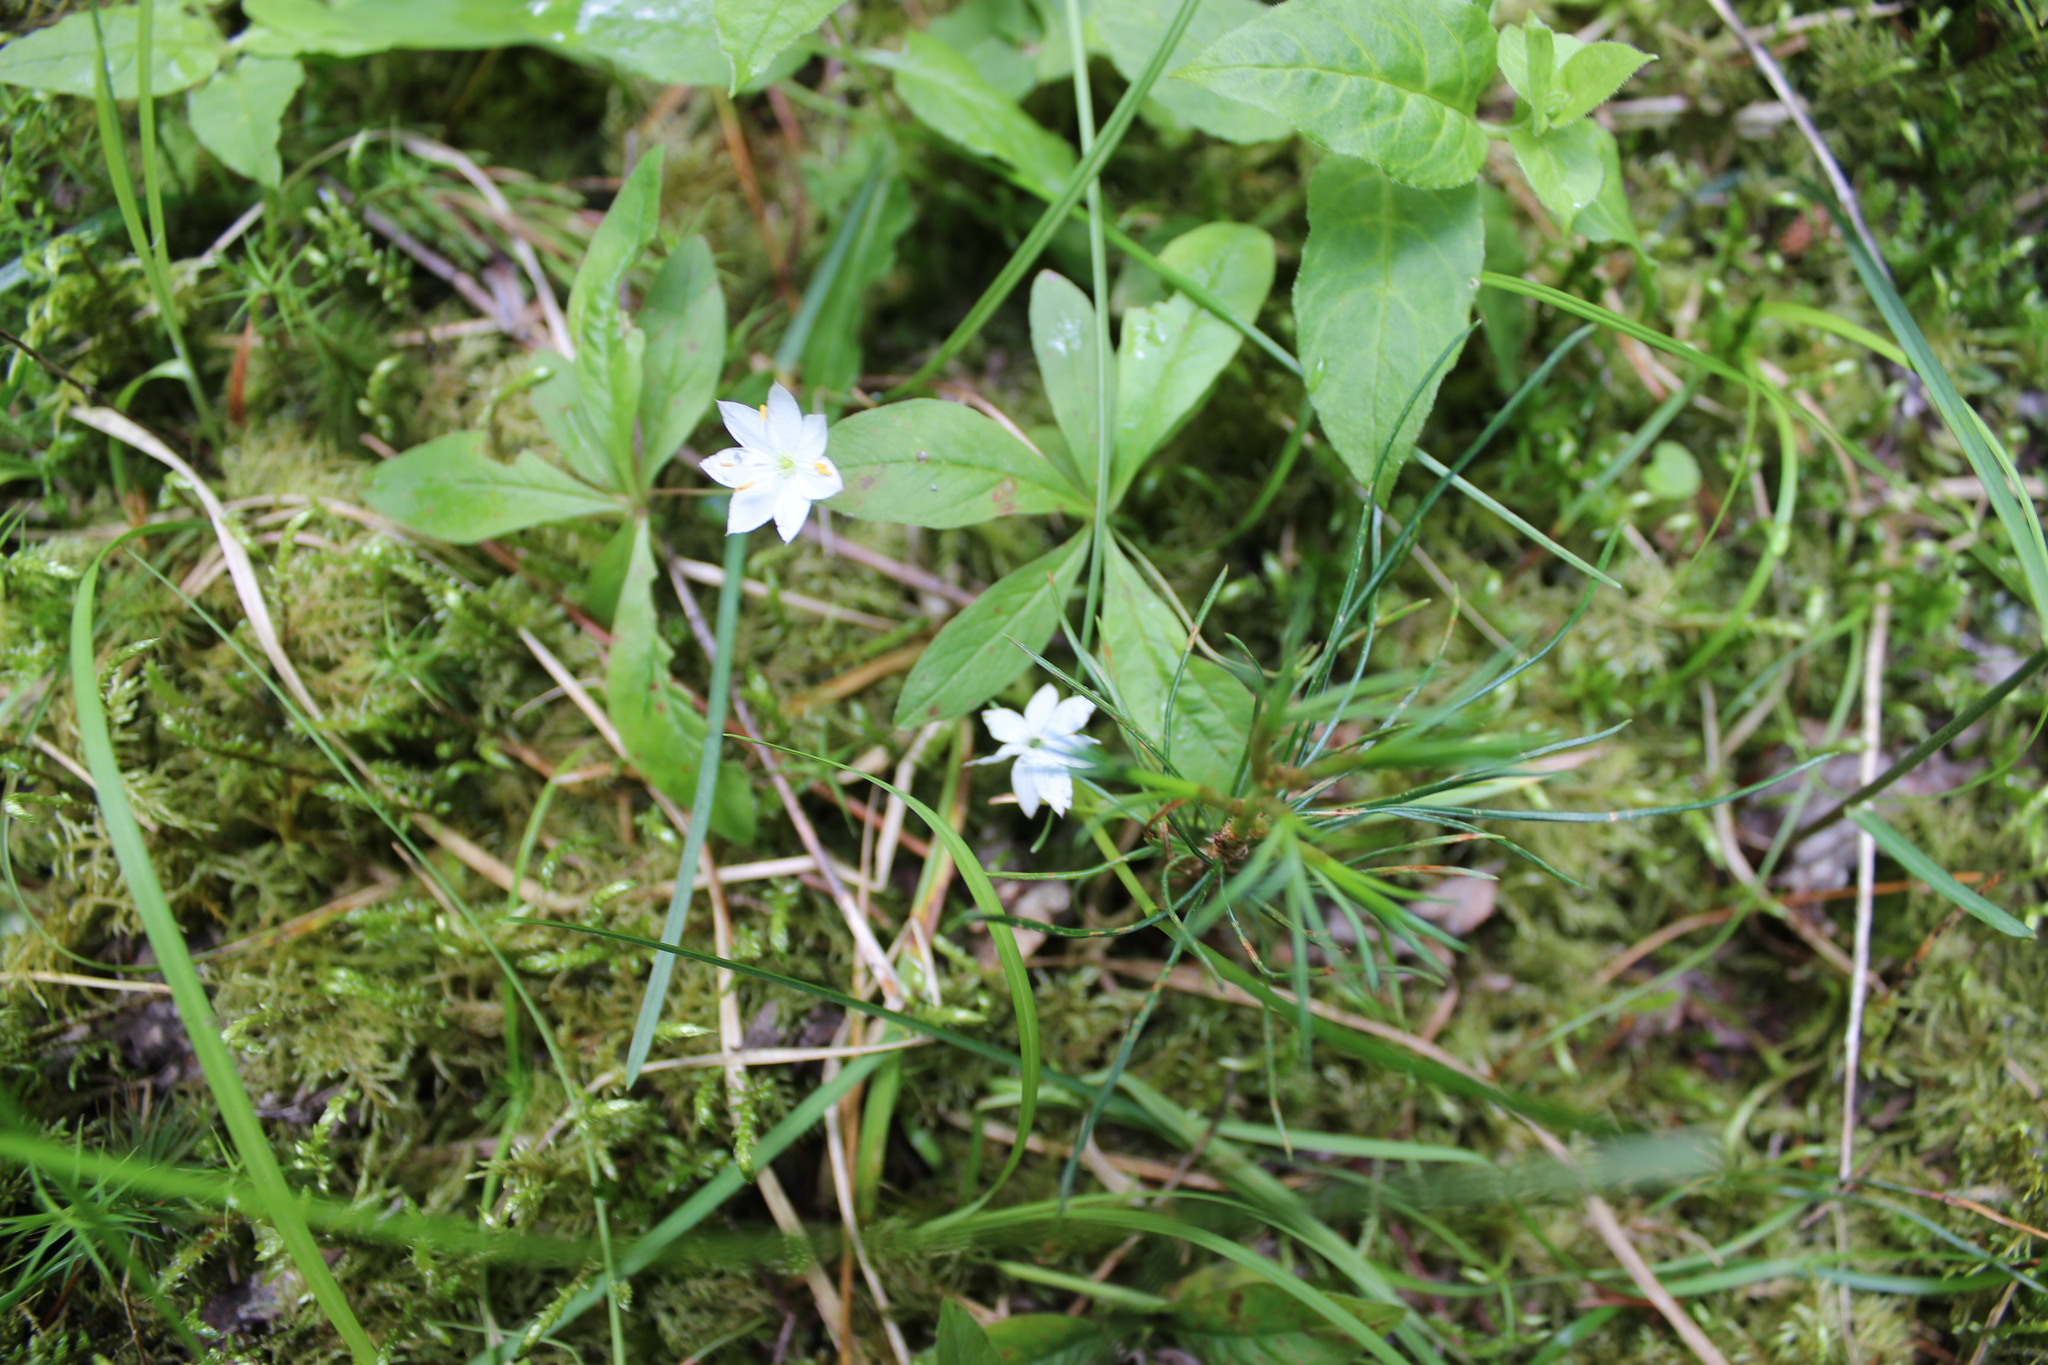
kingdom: Plantae
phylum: Tracheophyta
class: Magnoliopsida
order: Ericales
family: Primulaceae
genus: Lysimachia
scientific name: Lysimachia europaea
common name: Arctic starflower
